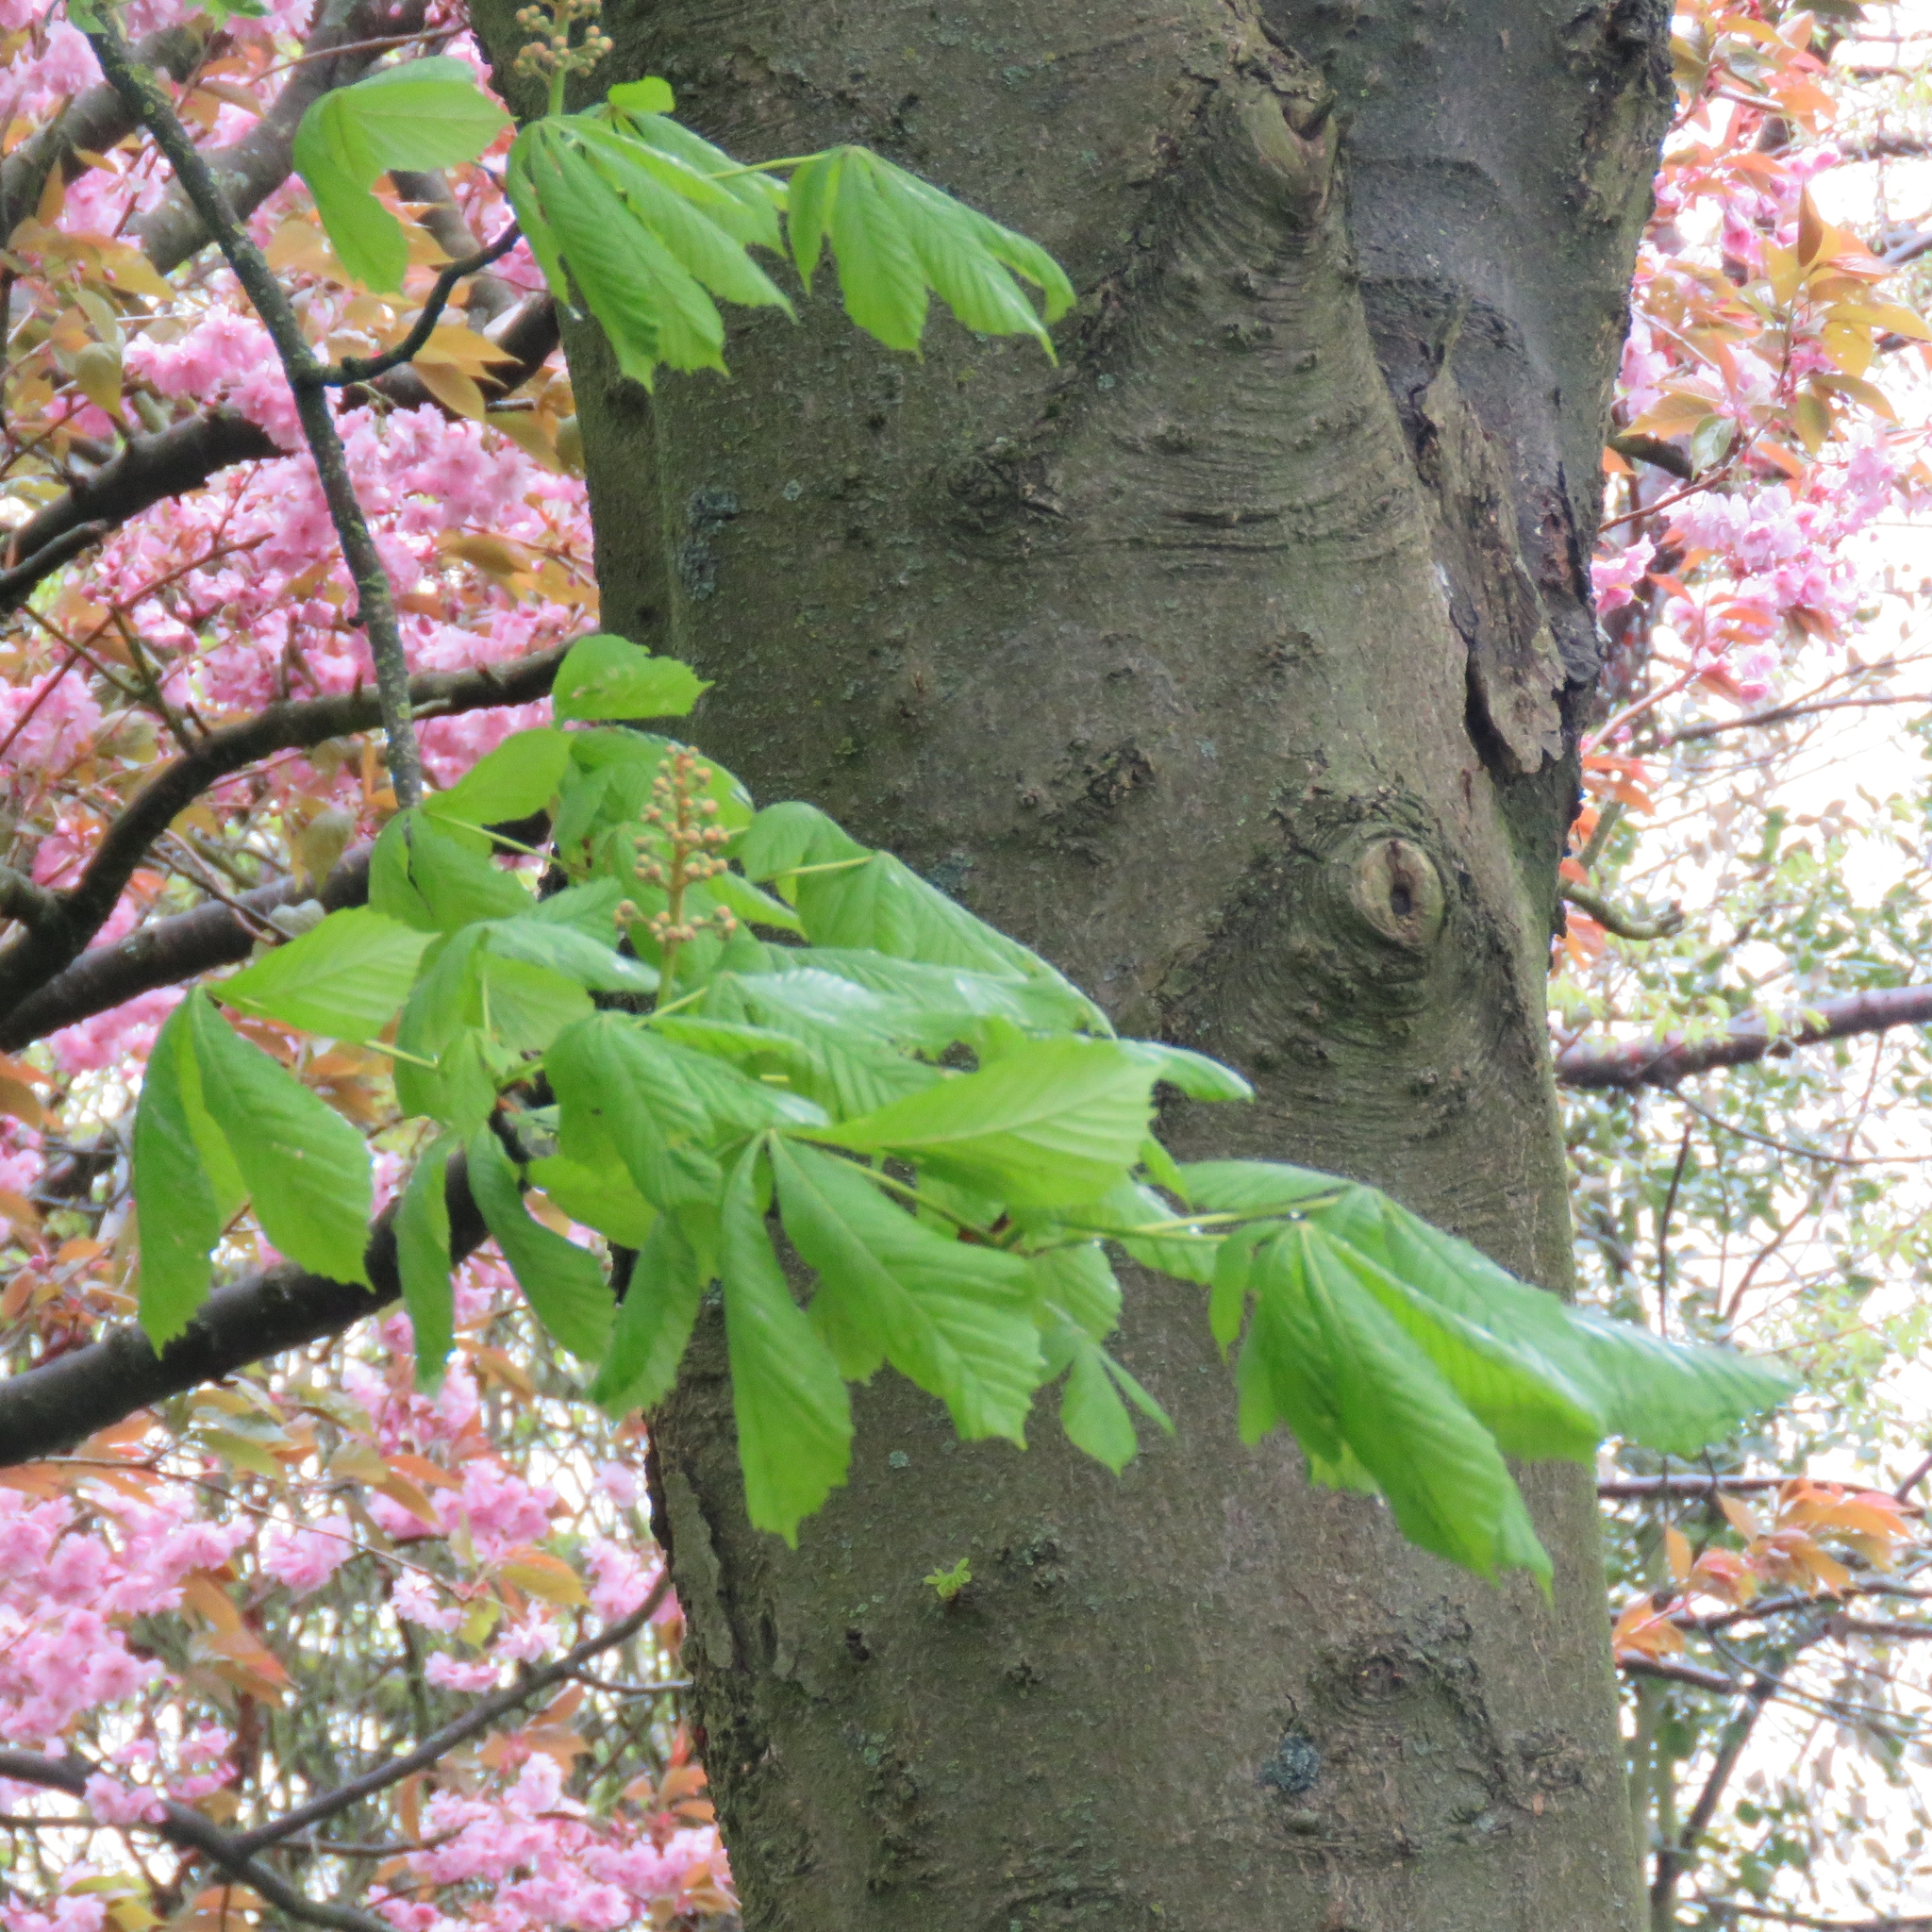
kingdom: Plantae
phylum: Tracheophyta
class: Magnoliopsida
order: Sapindales
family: Sapindaceae
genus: Aesculus
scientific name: Aesculus hippocastanum
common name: Horse-chestnut
